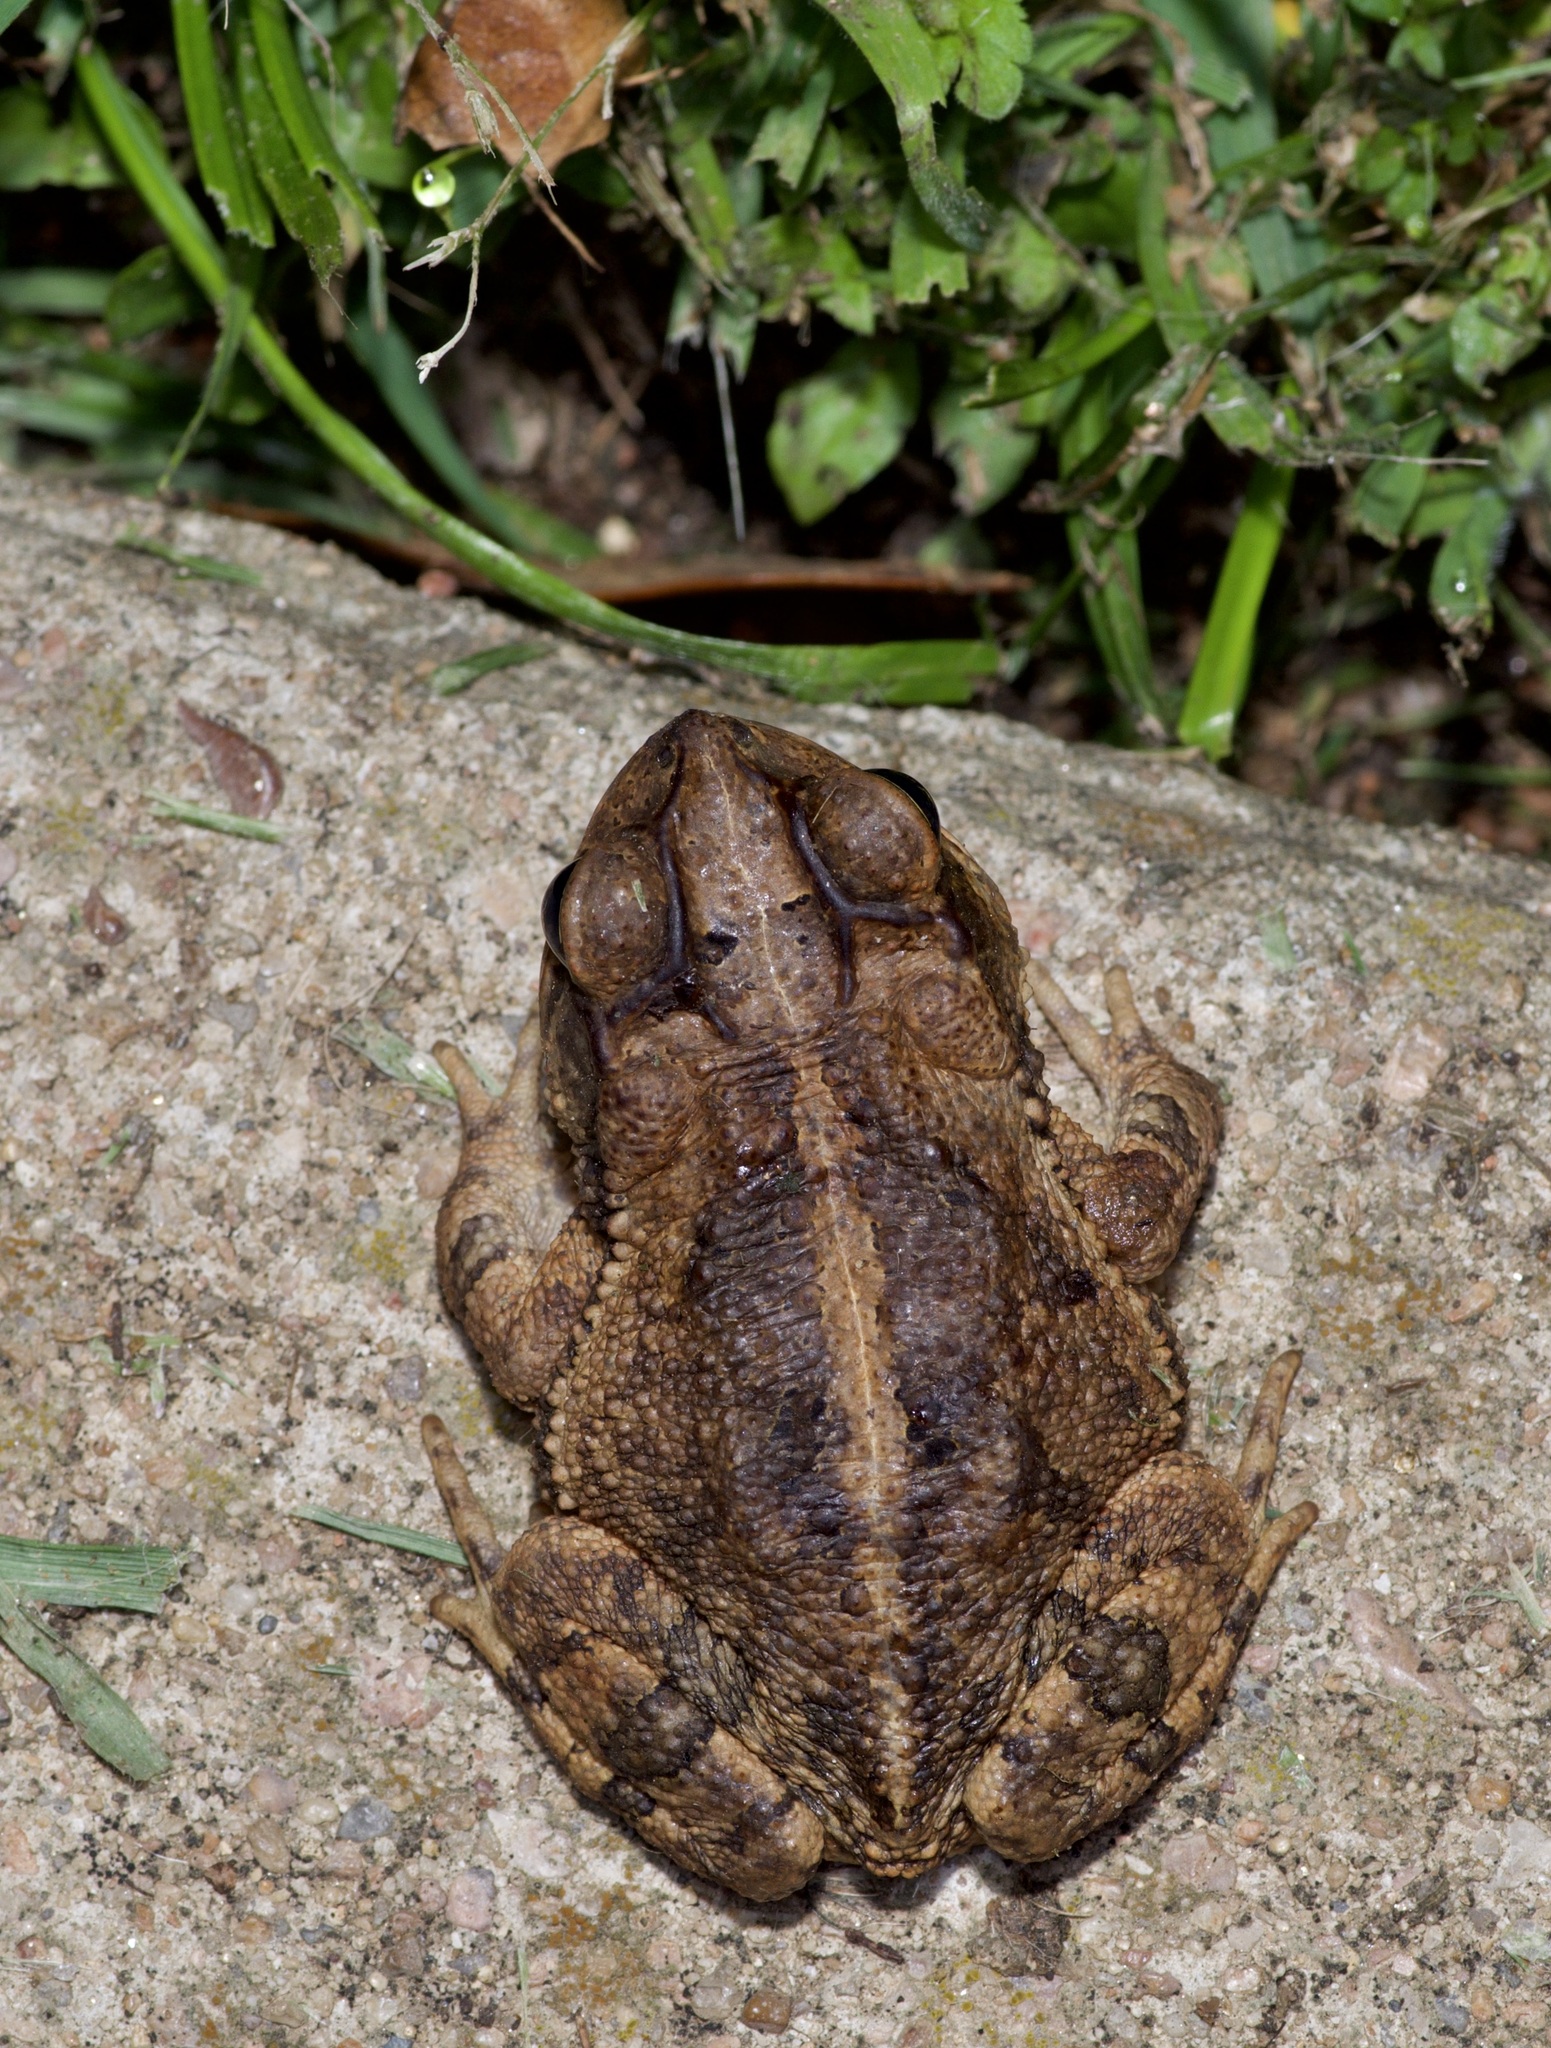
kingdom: Animalia
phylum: Chordata
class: Amphibia
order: Anura
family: Bufonidae
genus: Incilius
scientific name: Incilius nebulifer
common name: Gulf coast toad
